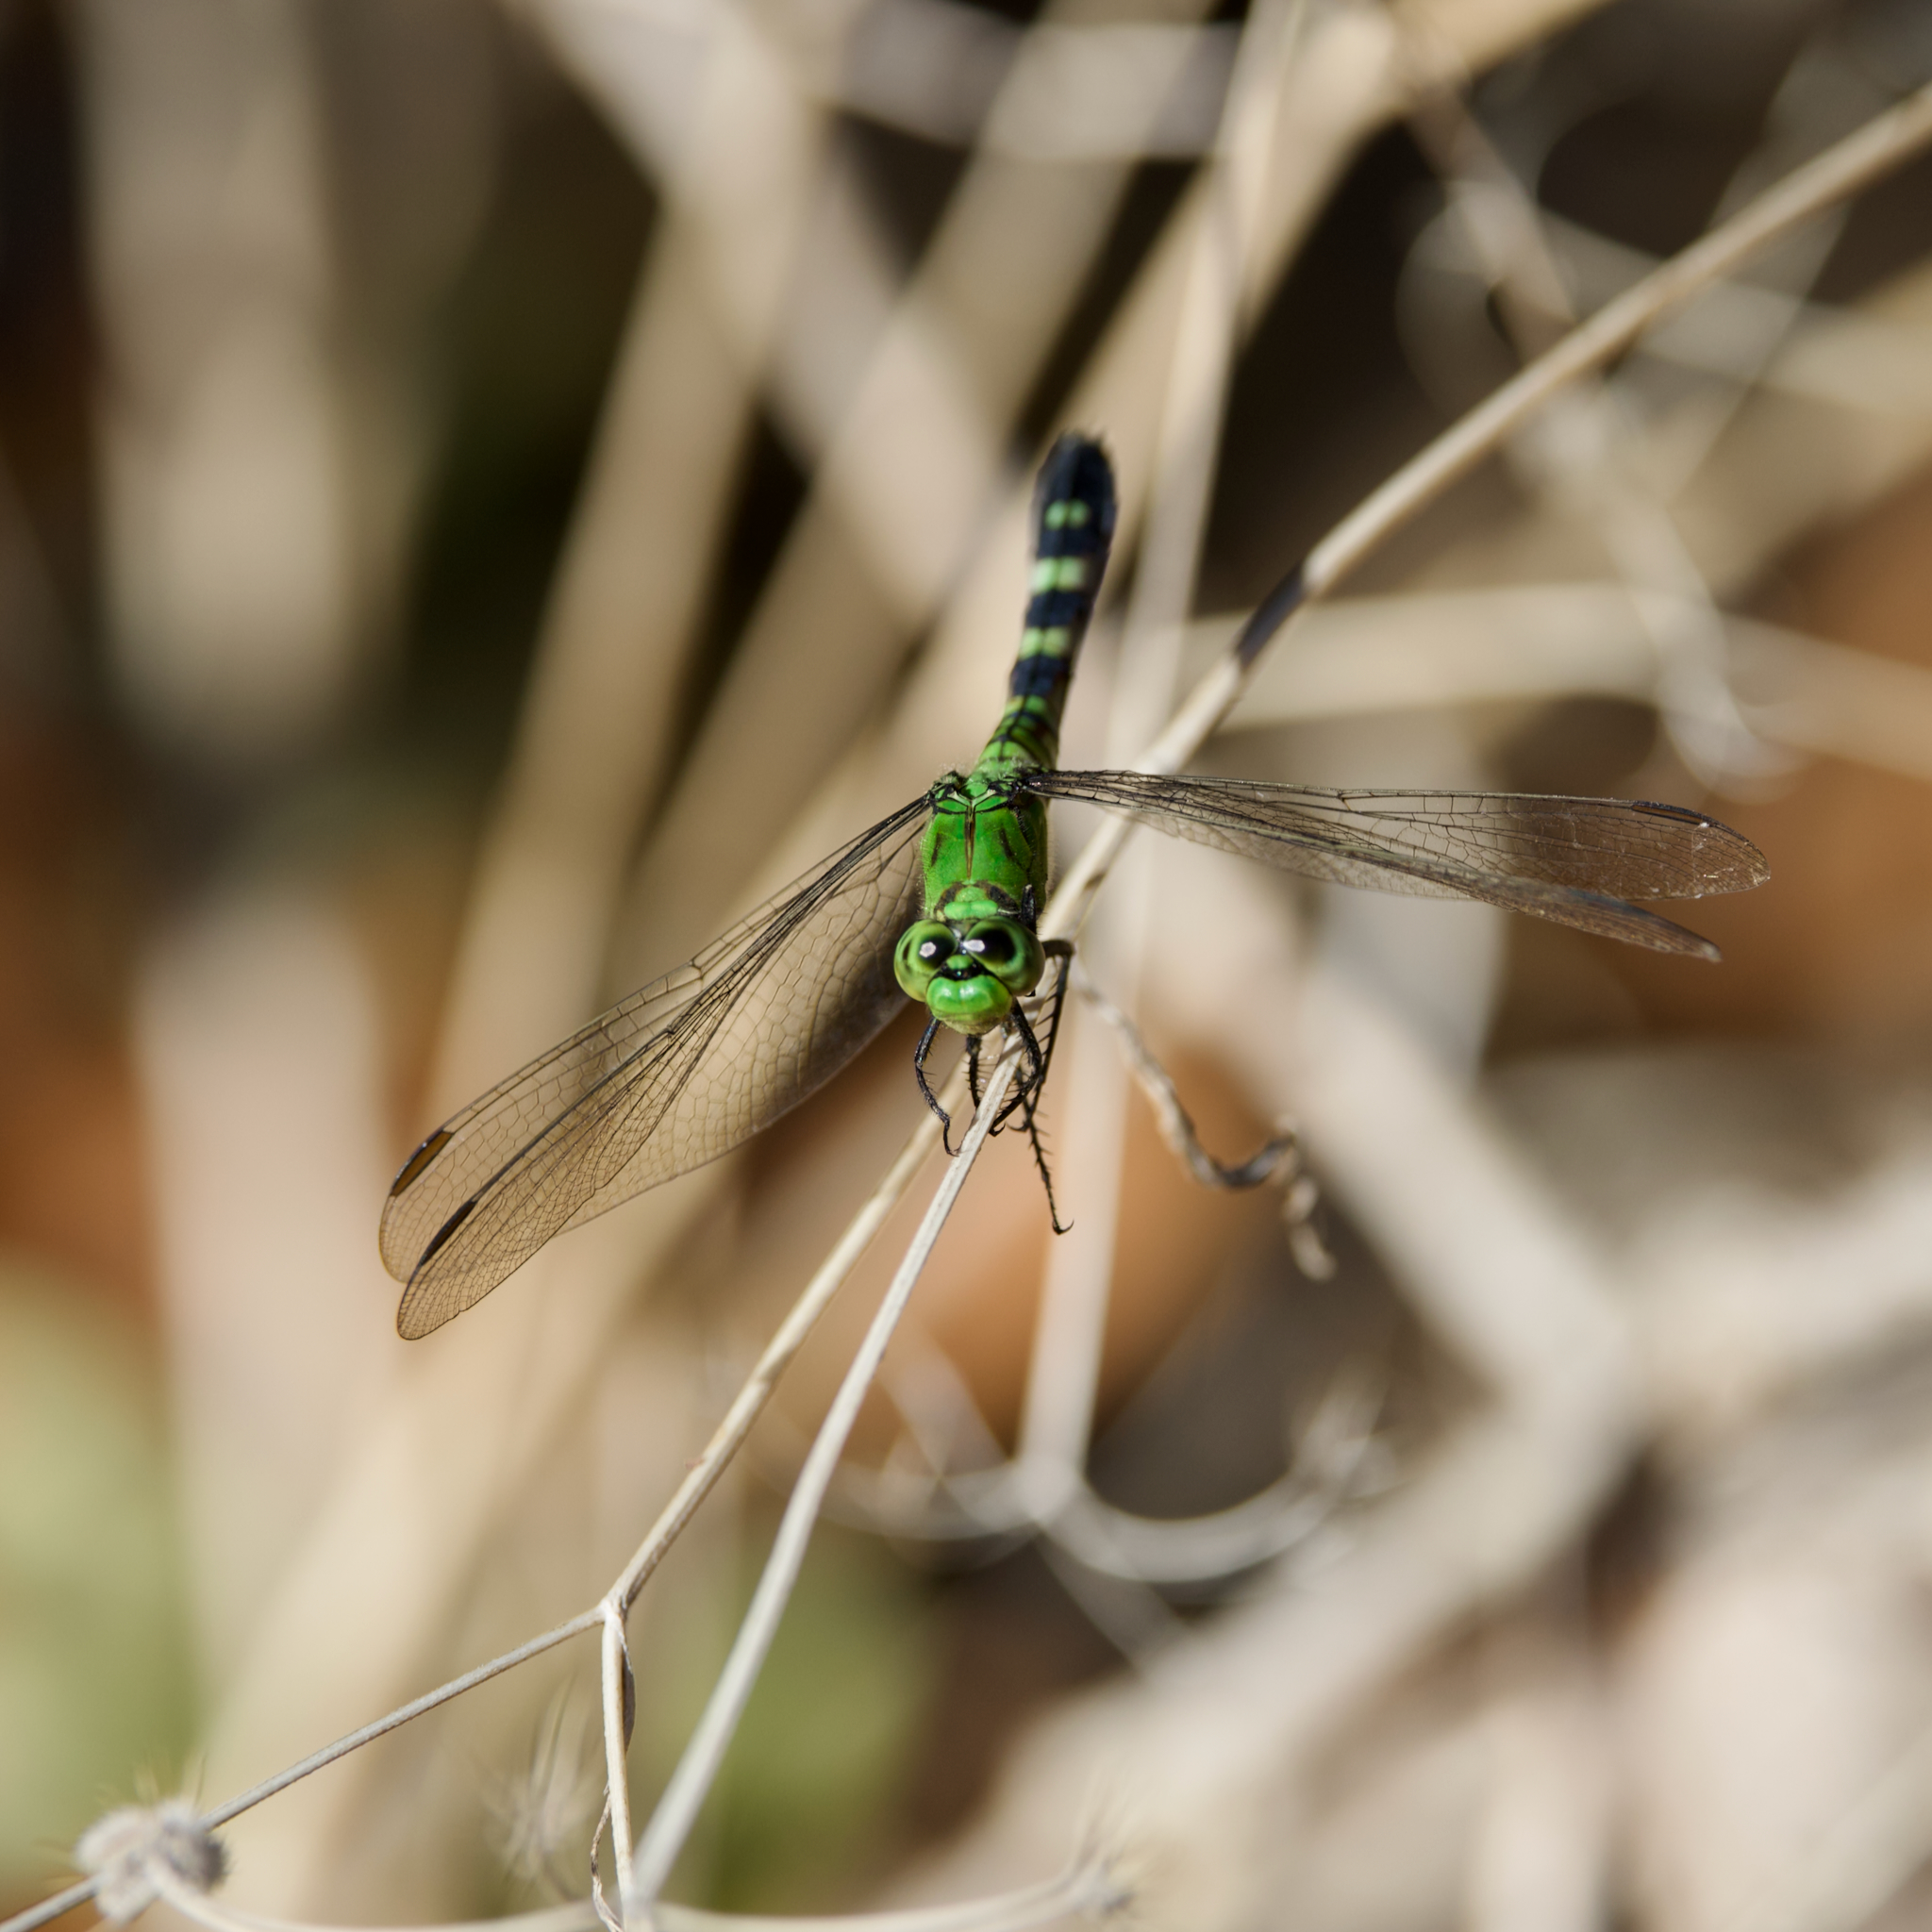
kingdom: Animalia
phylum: Arthropoda
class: Insecta
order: Odonata
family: Libellulidae
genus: Erythemis
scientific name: Erythemis simplicicollis
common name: Eastern pondhawk
